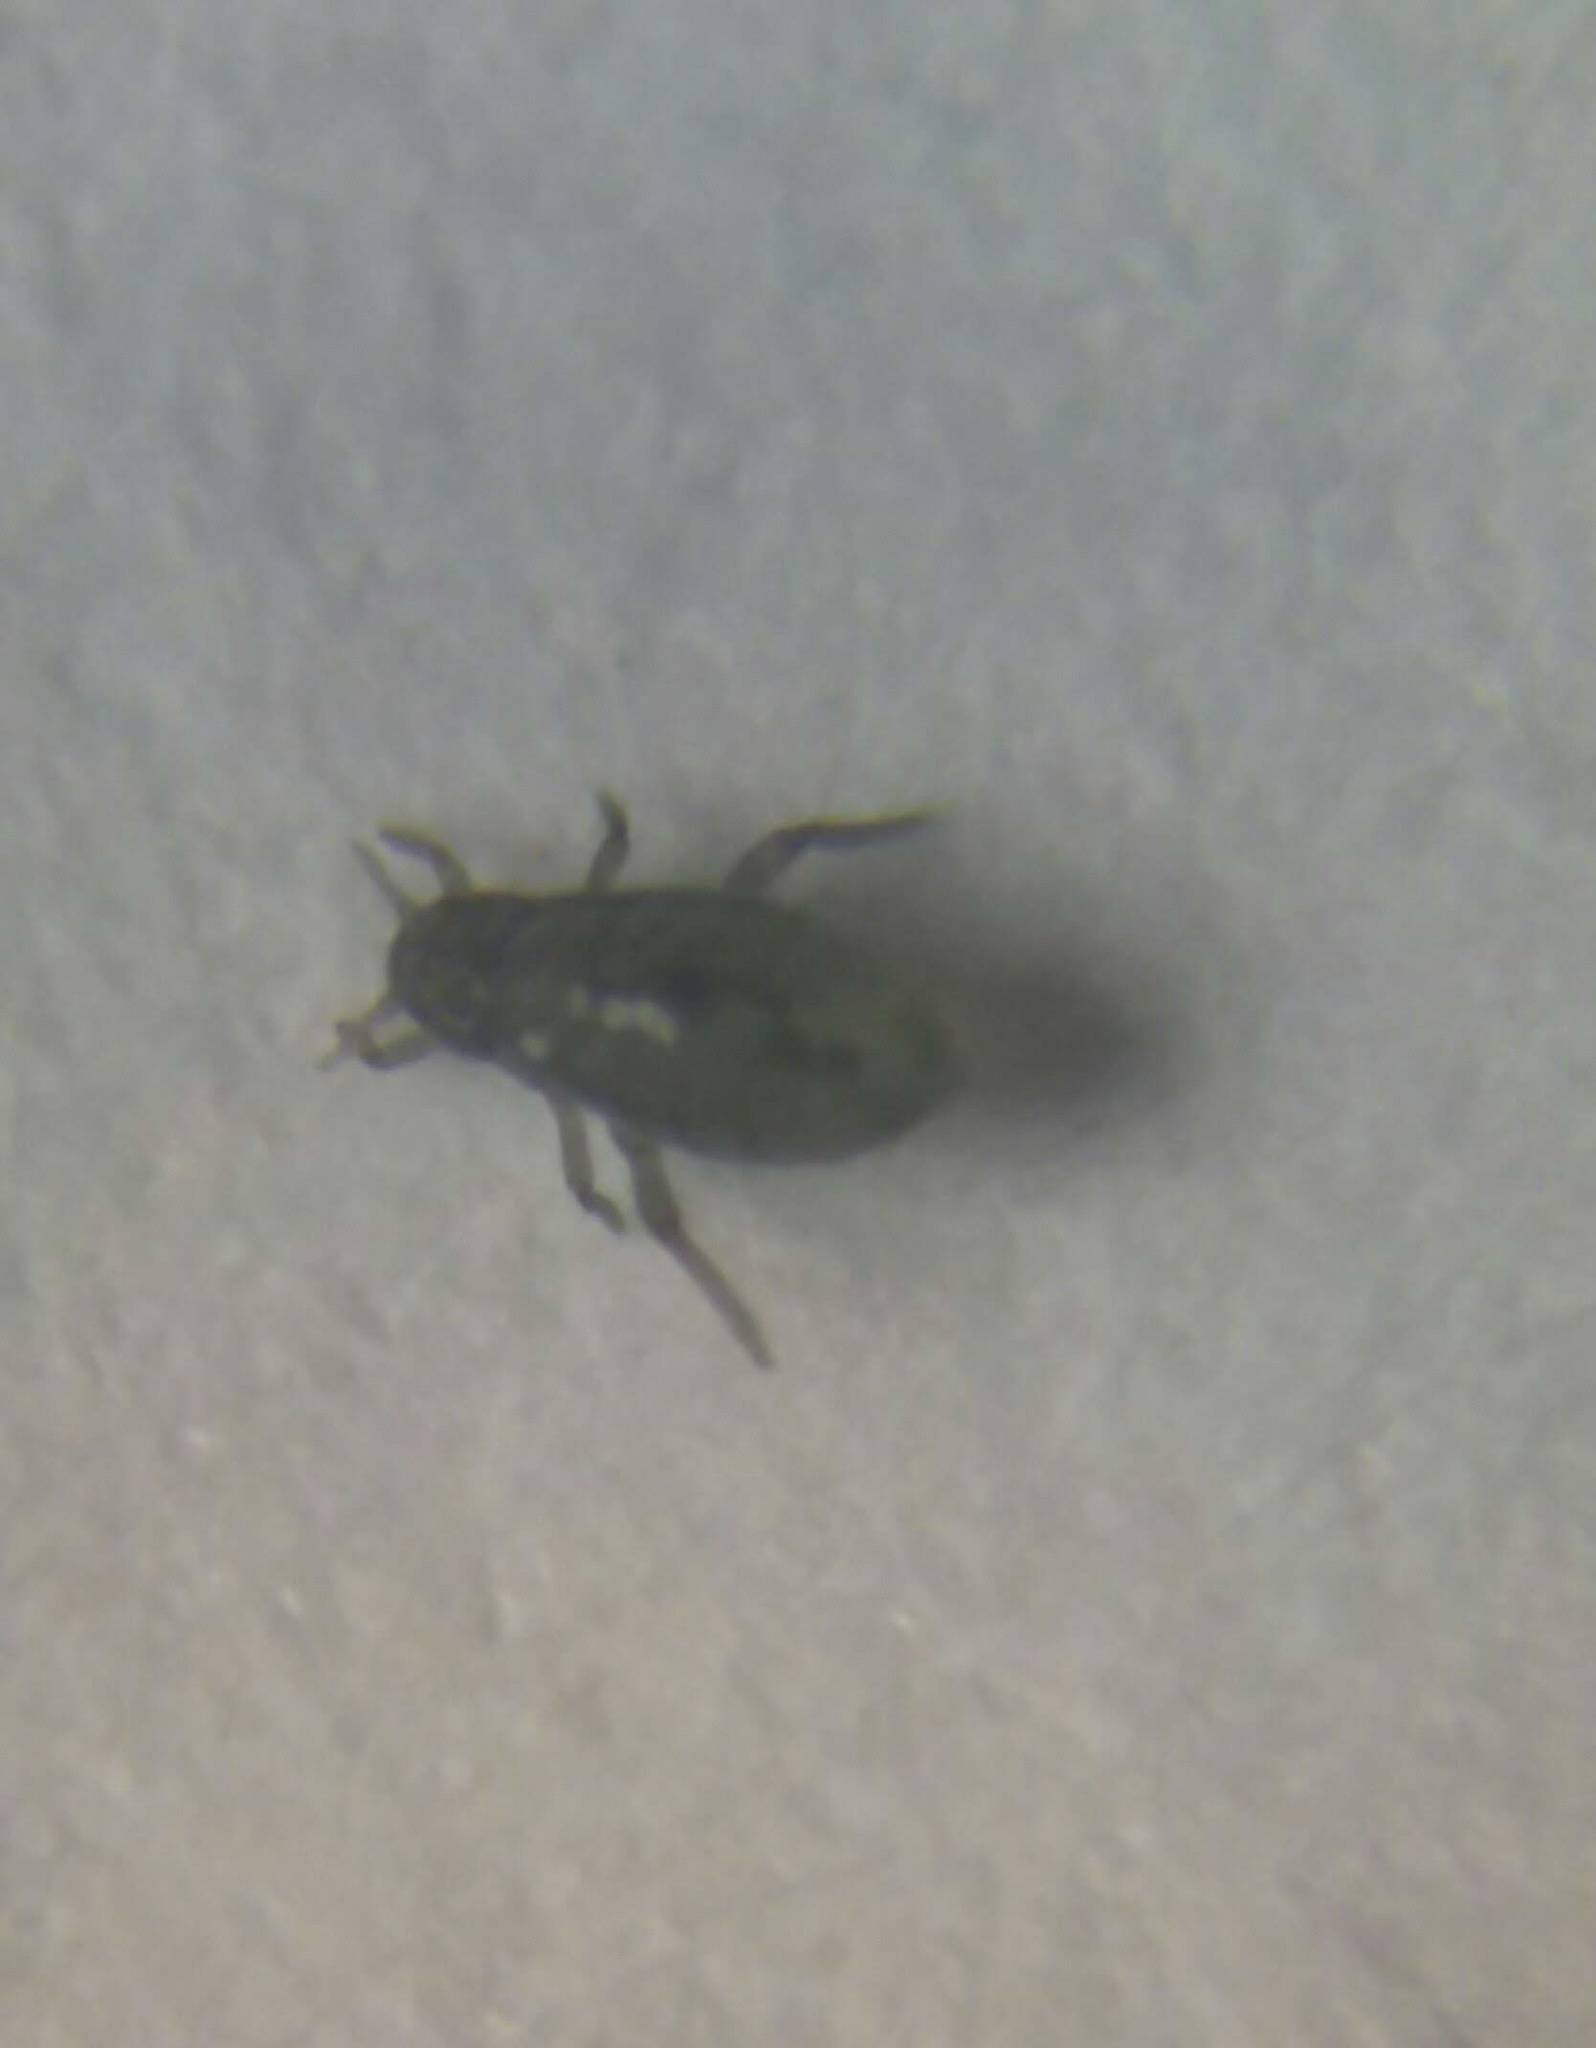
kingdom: Animalia
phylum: Arthropoda
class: Insecta
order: Hemiptera
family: Aphididae
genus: Tetraneura
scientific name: Tetraneura nigriabdominalis
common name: Aphid
